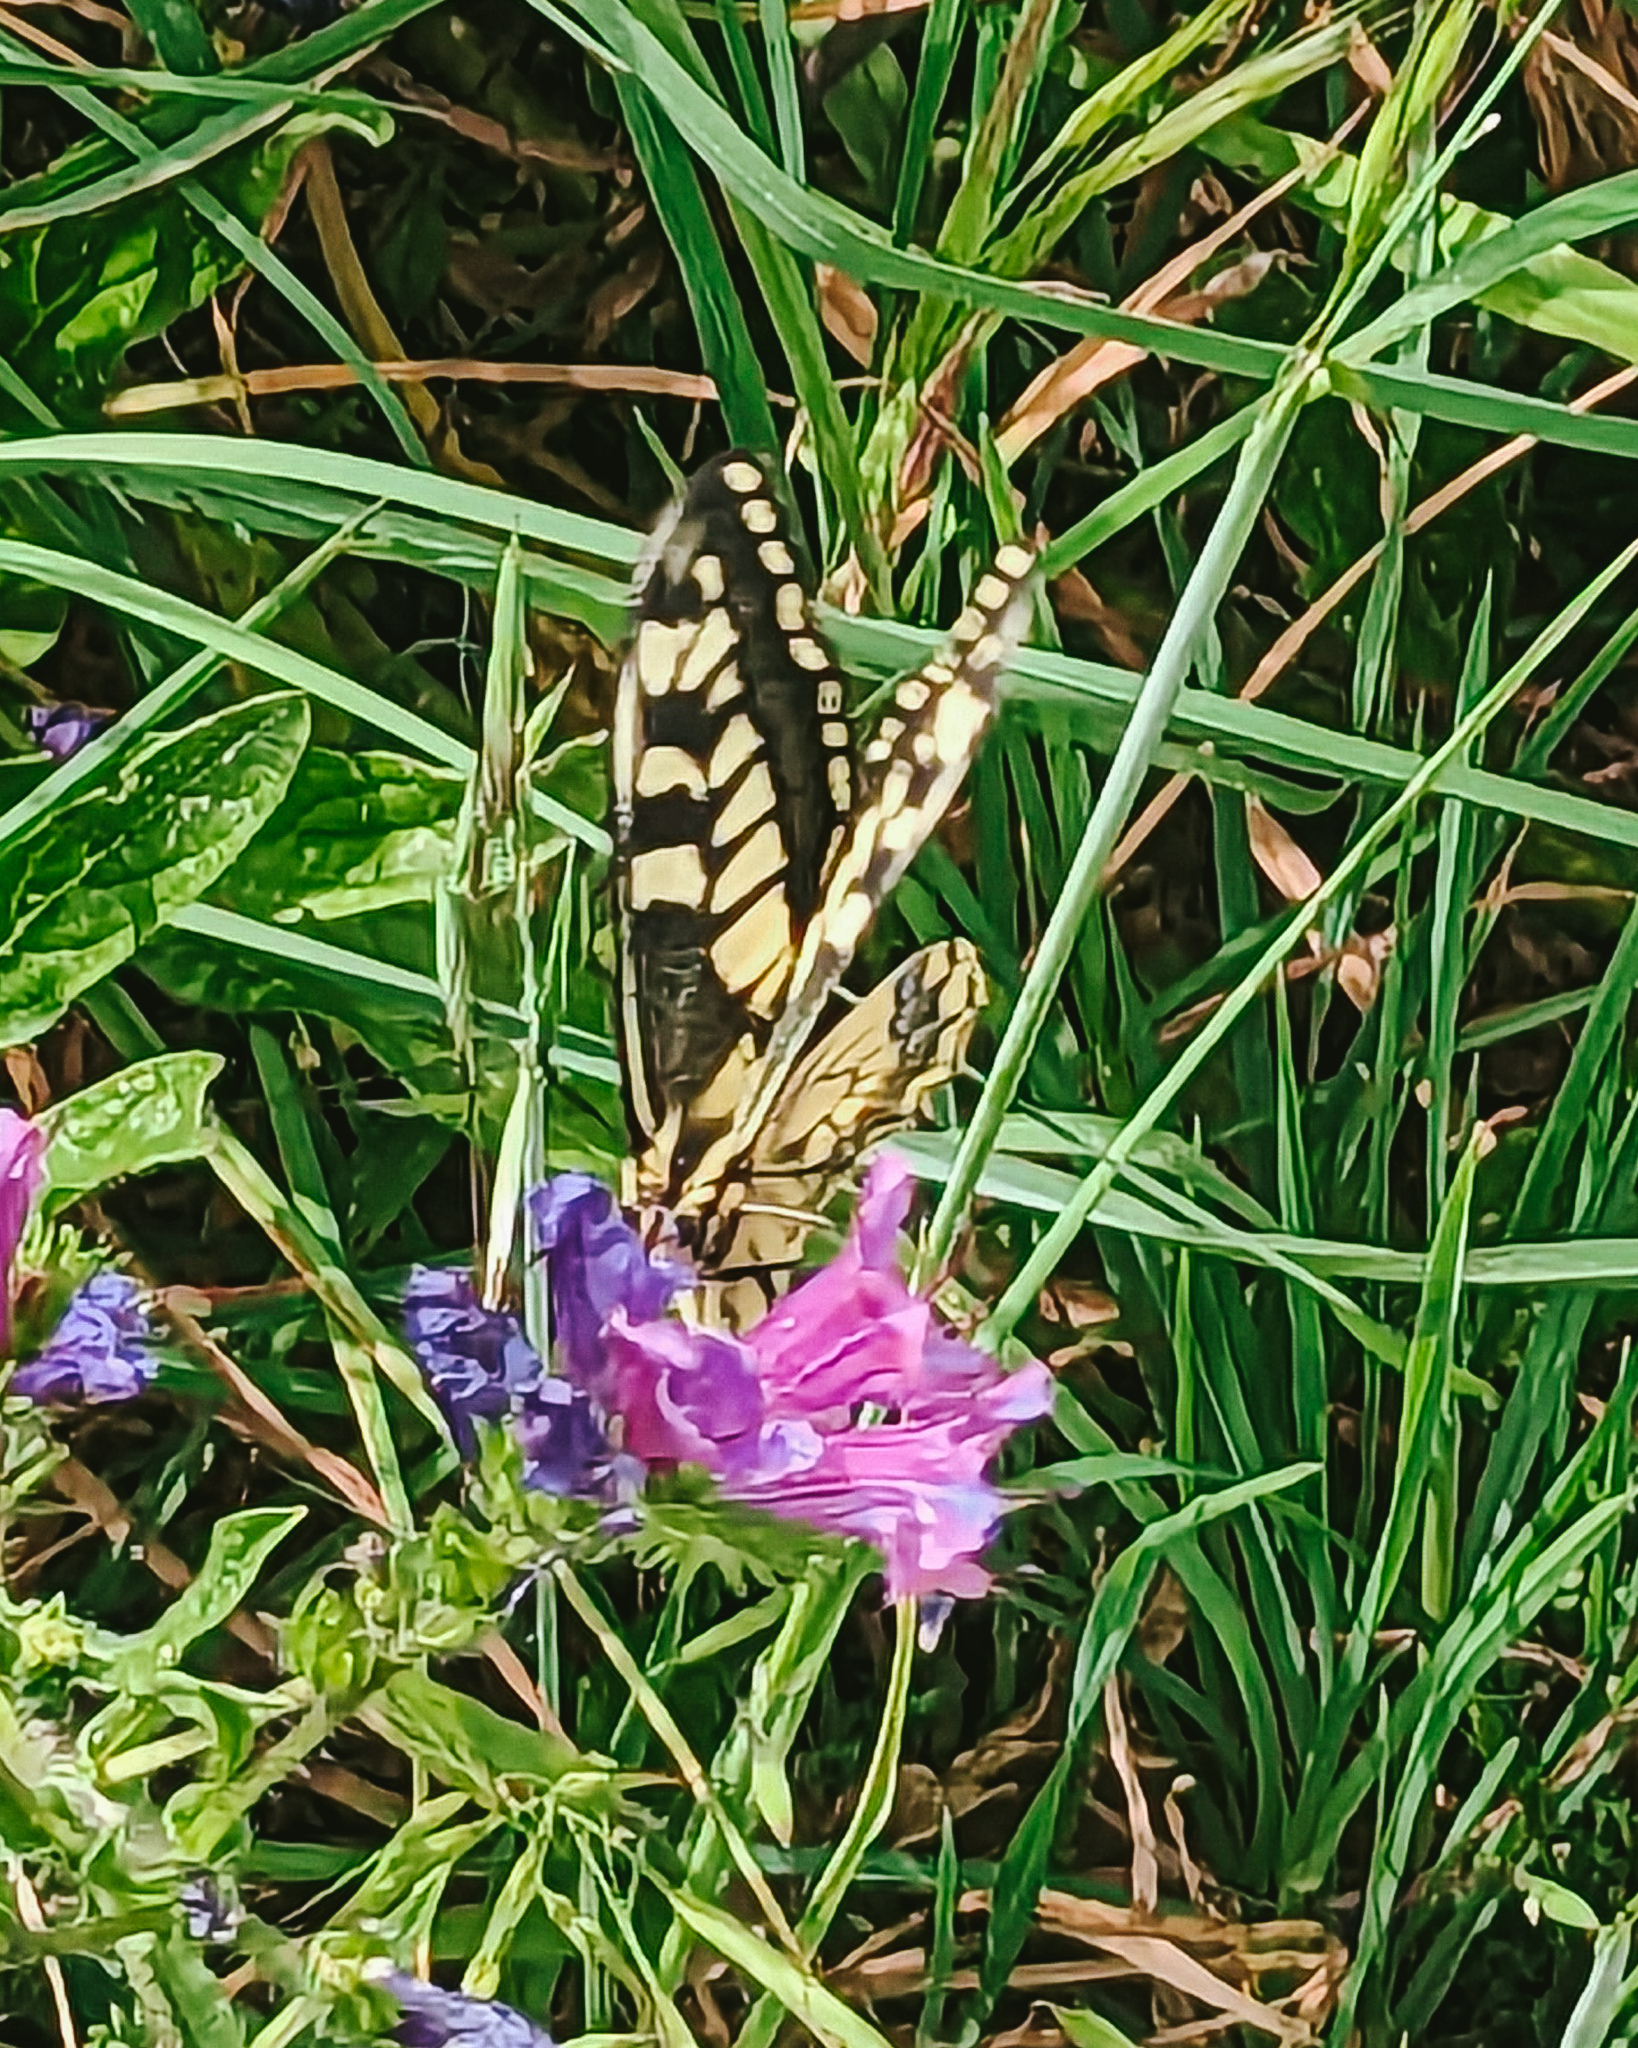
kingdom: Animalia
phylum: Arthropoda
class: Insecta
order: Lepidoptera
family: Papilionidae
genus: Papilio
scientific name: Papilio machaon
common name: Swallowtail
